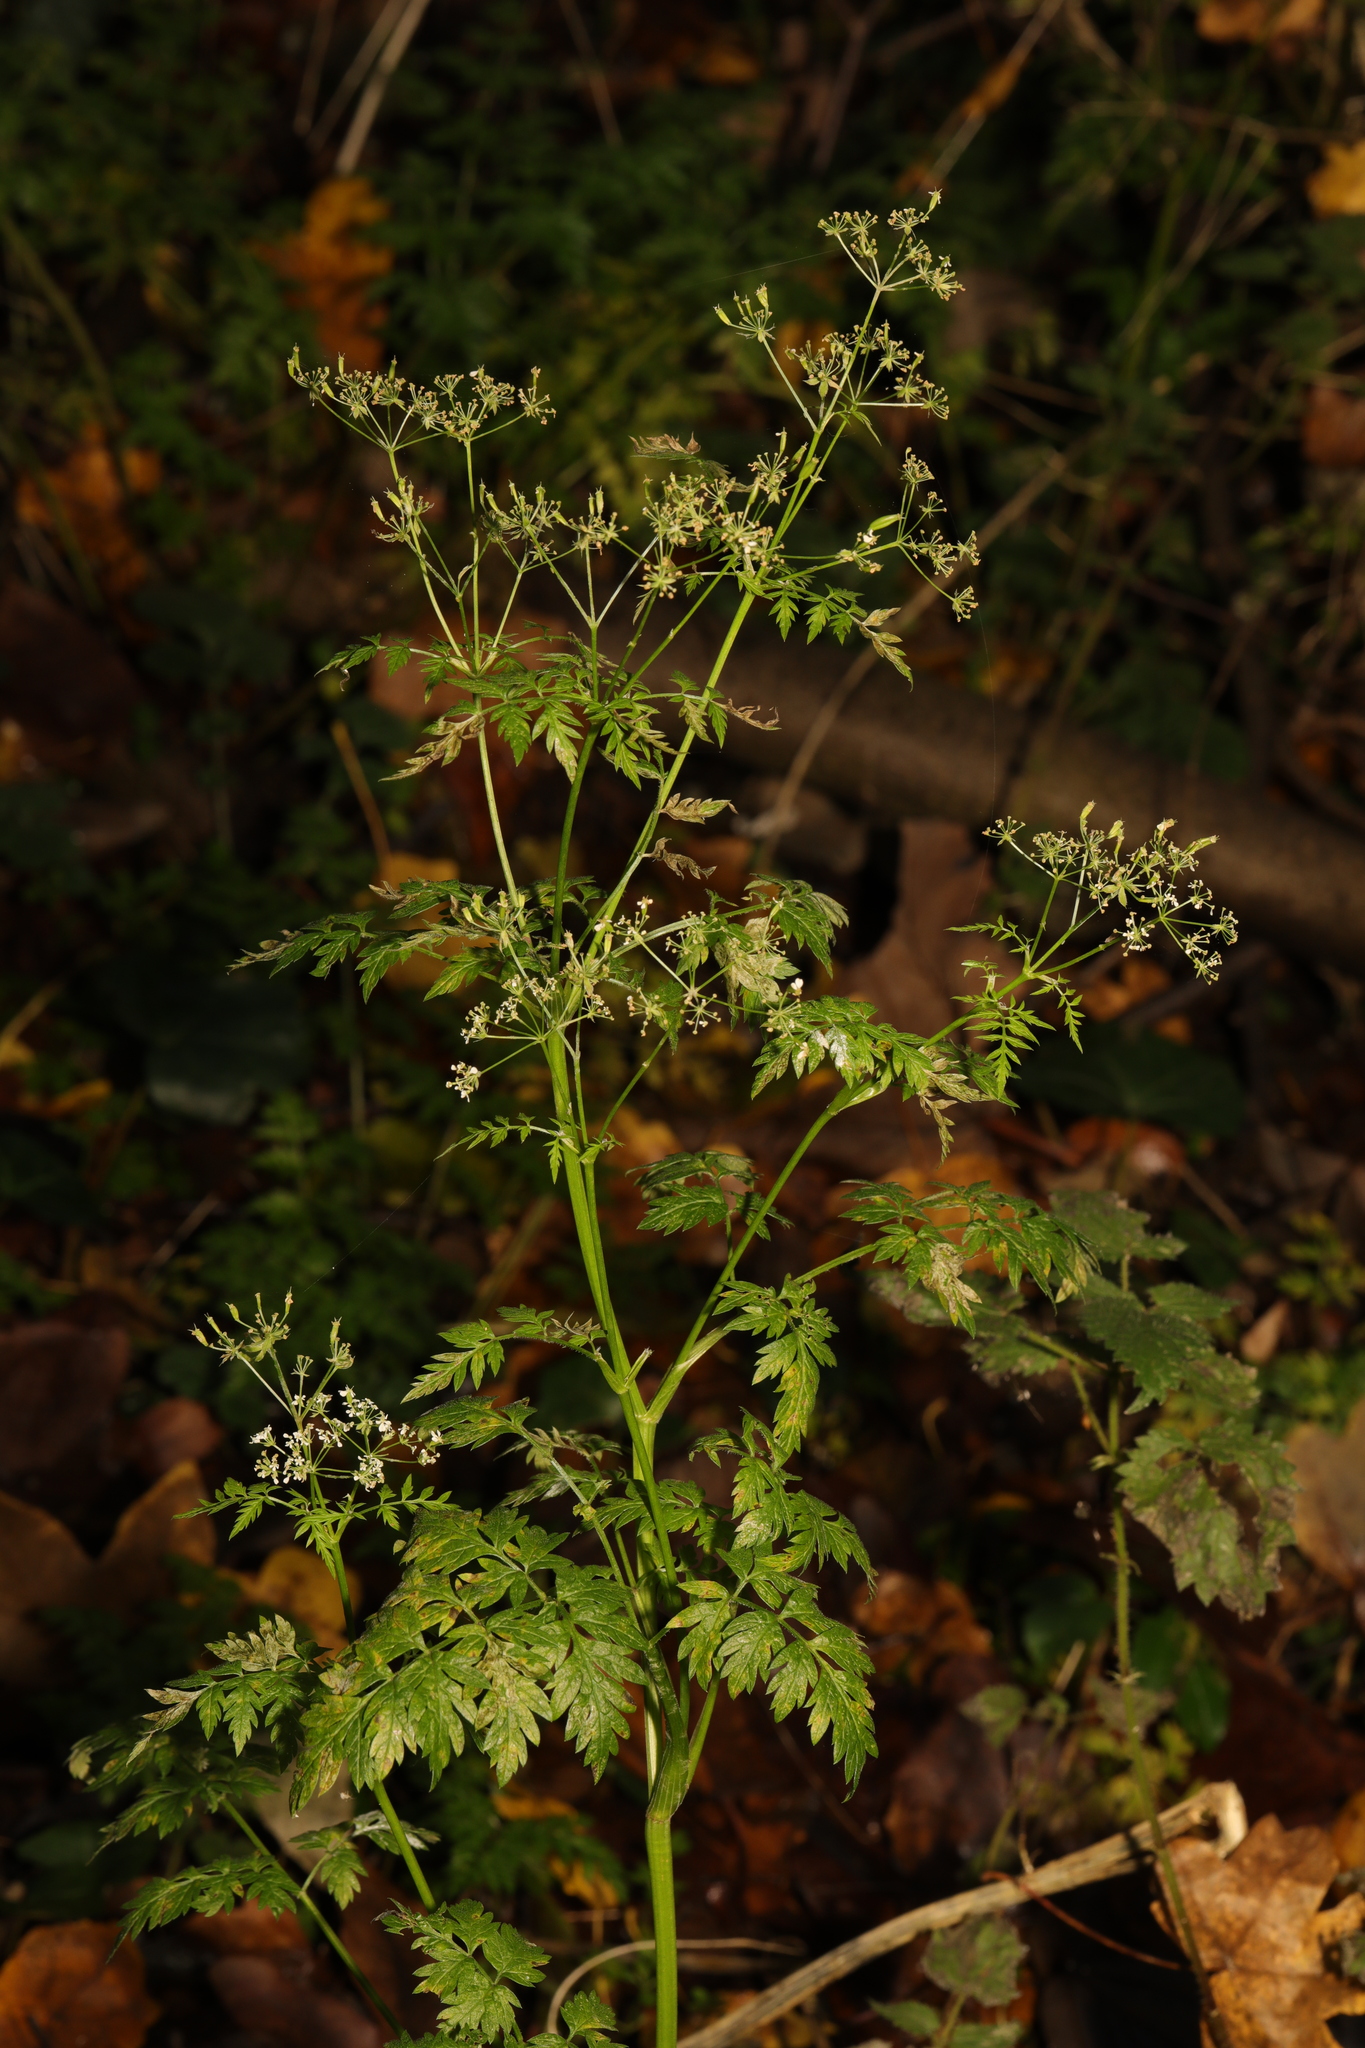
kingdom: Plantae
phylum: Tracheophyta
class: Magnoliopsida
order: Apiales
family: Apiaceae
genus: Anthriscus
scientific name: Anthriscus sylvestris
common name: Cow parsley
